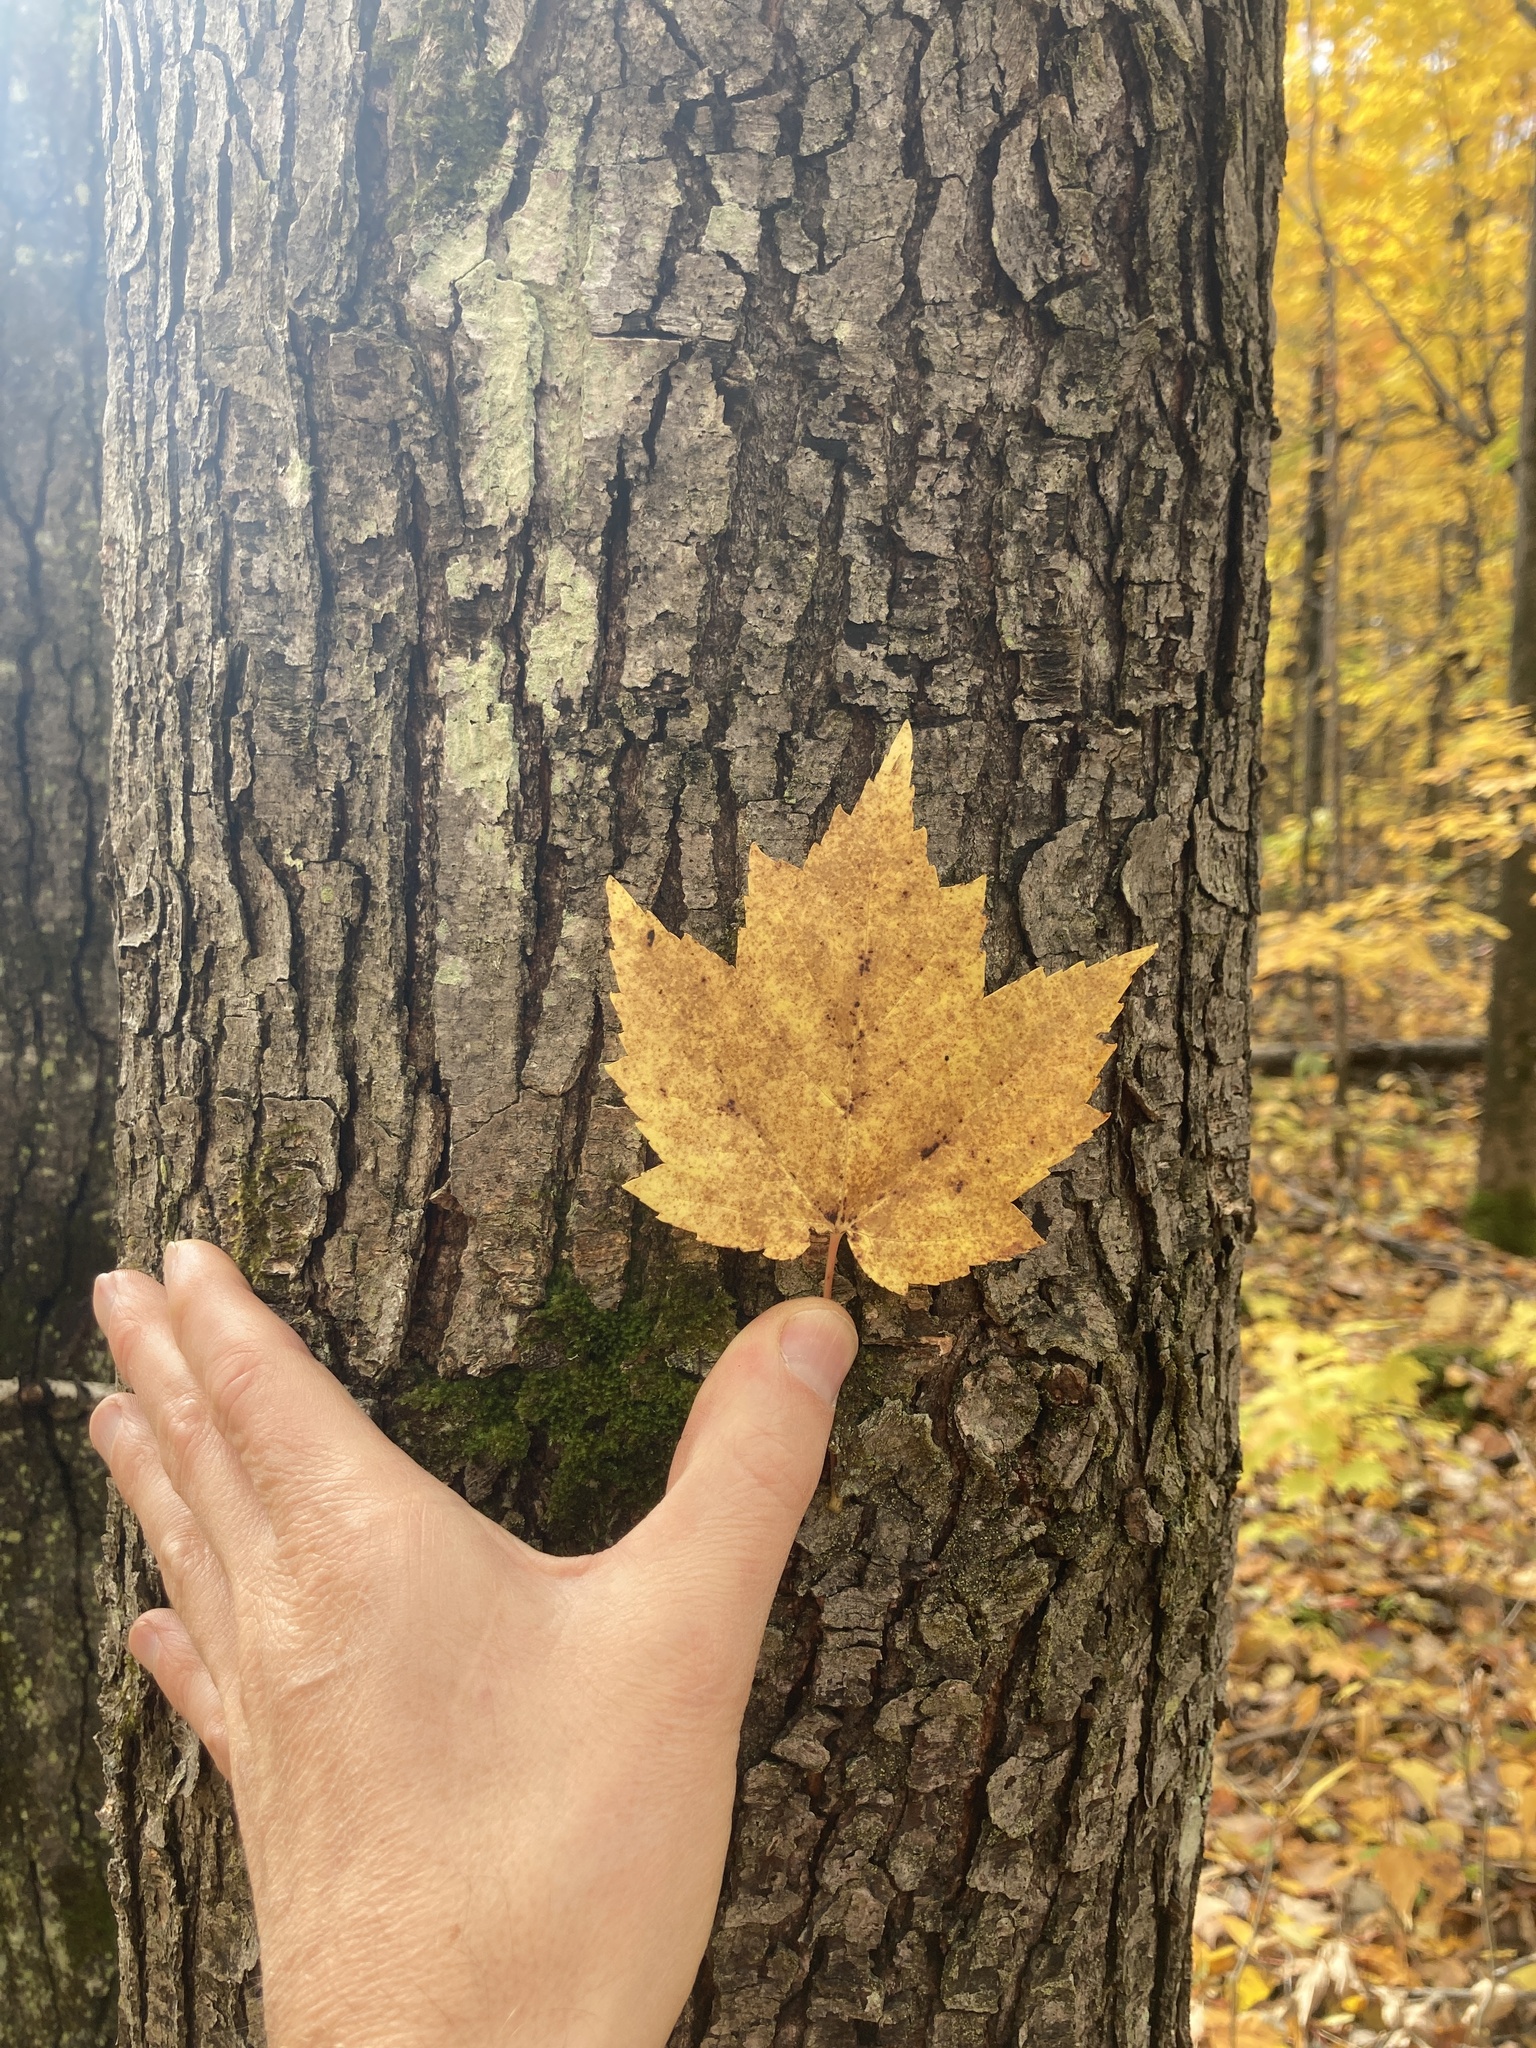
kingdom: Plantae
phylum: Tracheophyta
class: Magnoliopsida
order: Sapindales
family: Sapindaceae
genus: Acer
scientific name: Acer rubrum
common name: Red maple
